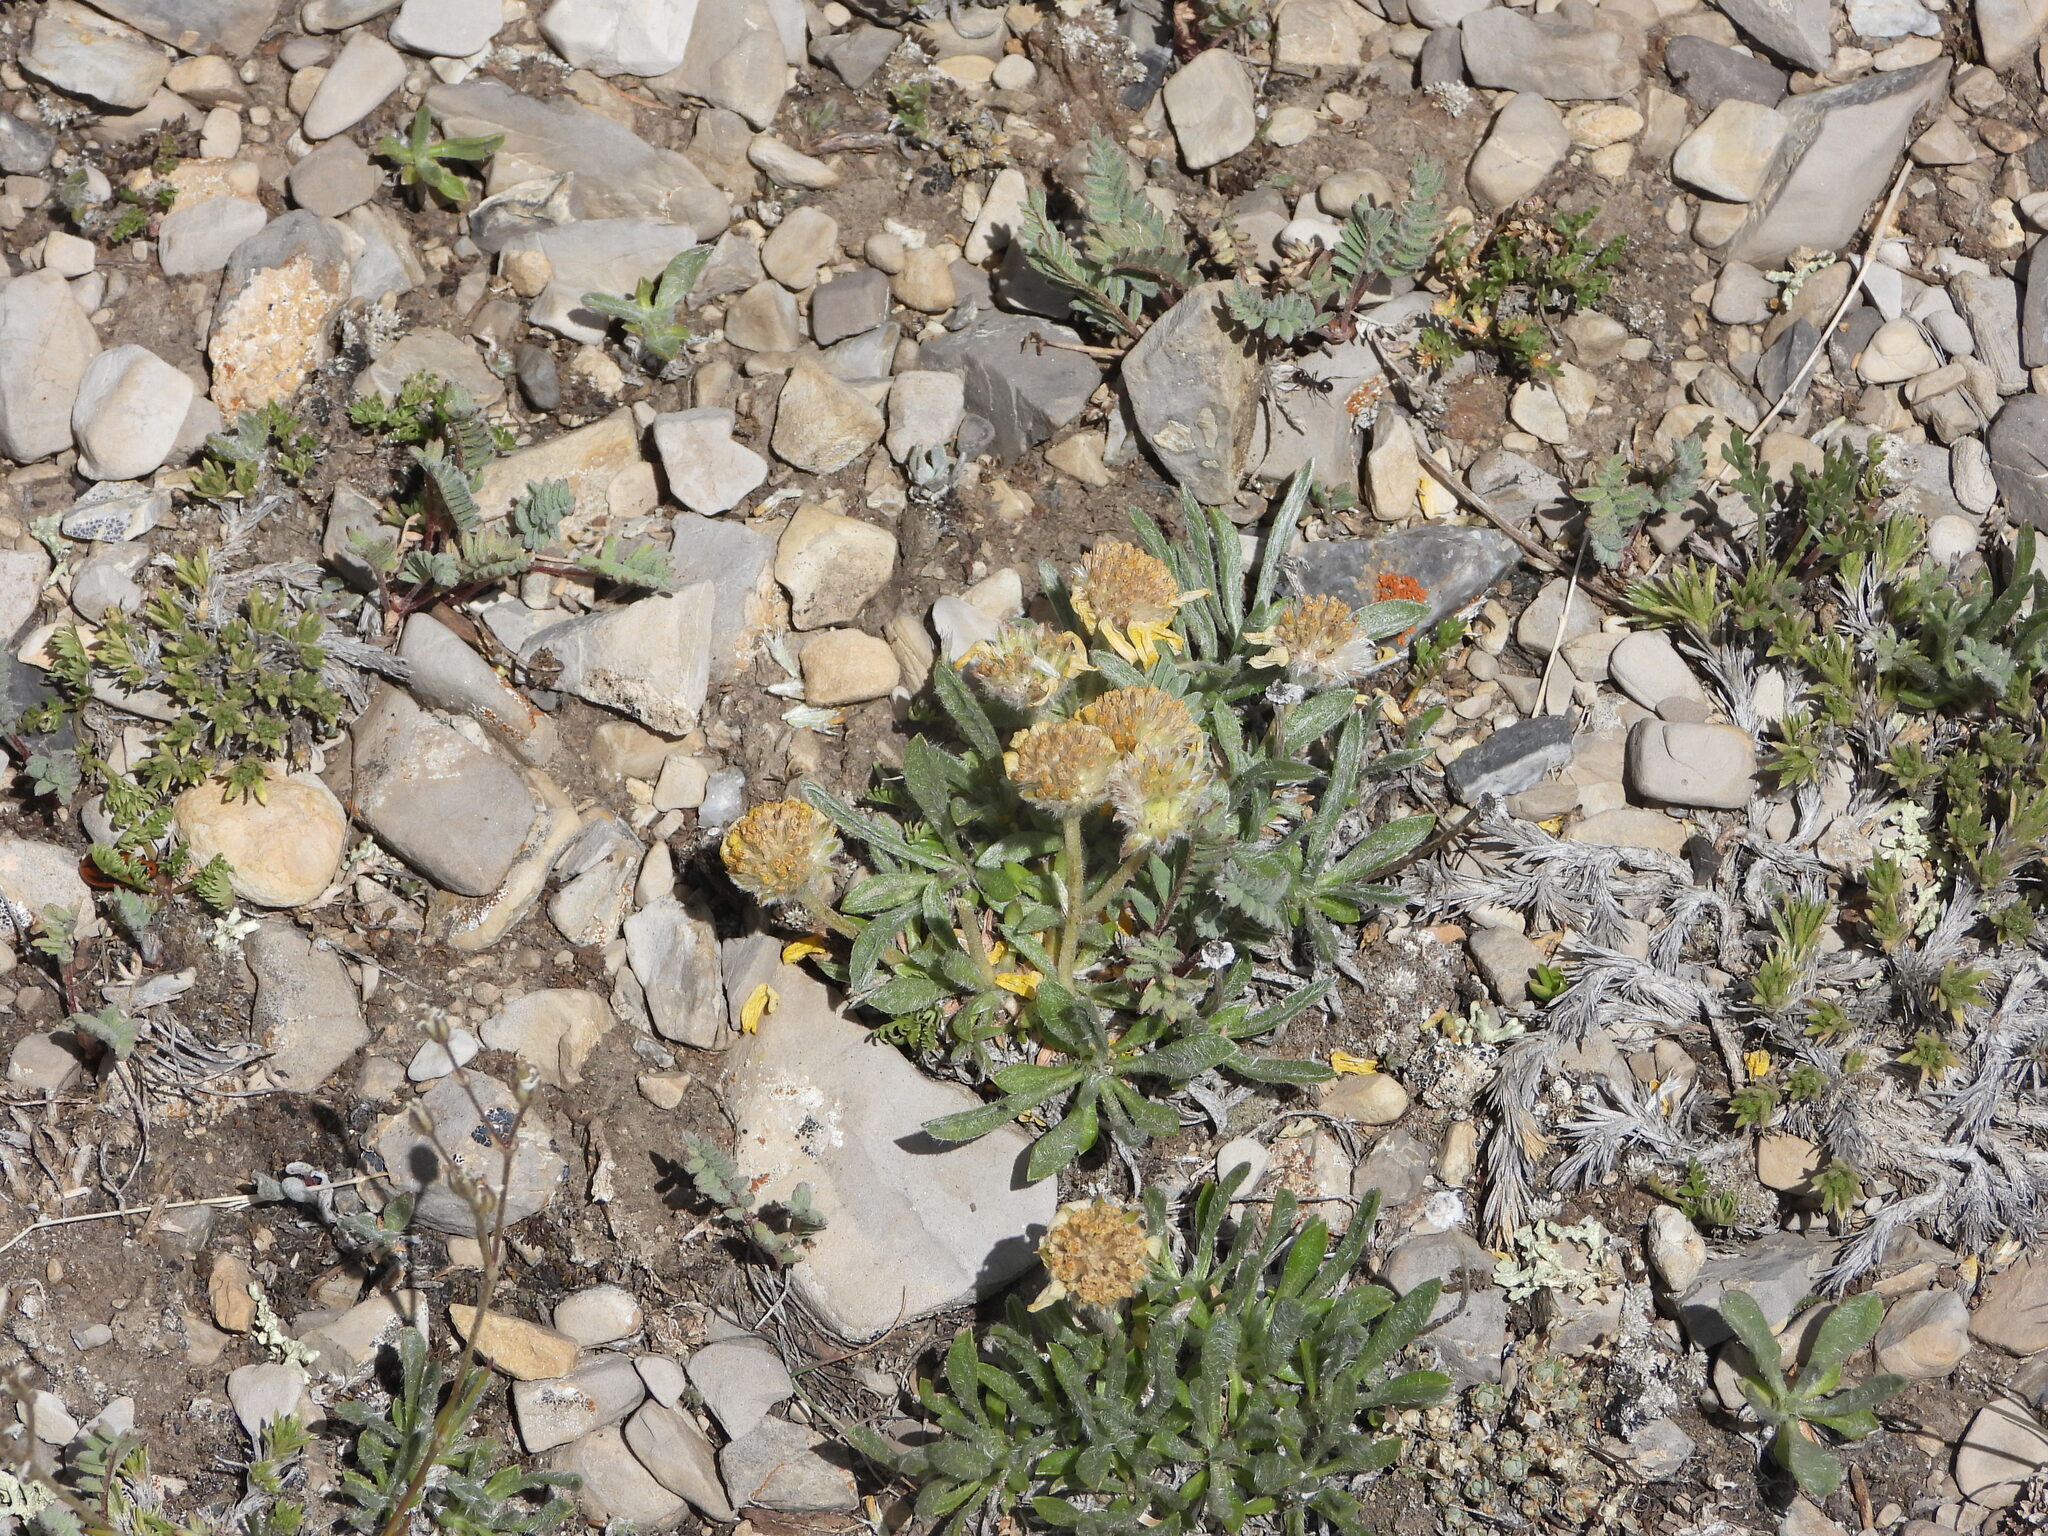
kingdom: Plantae
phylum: Tracheophyta
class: Magnoliopsida
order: Asterales
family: Asteraceae
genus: Tetraneuris
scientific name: Tetraneuris acaulis
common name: Butte marigold
